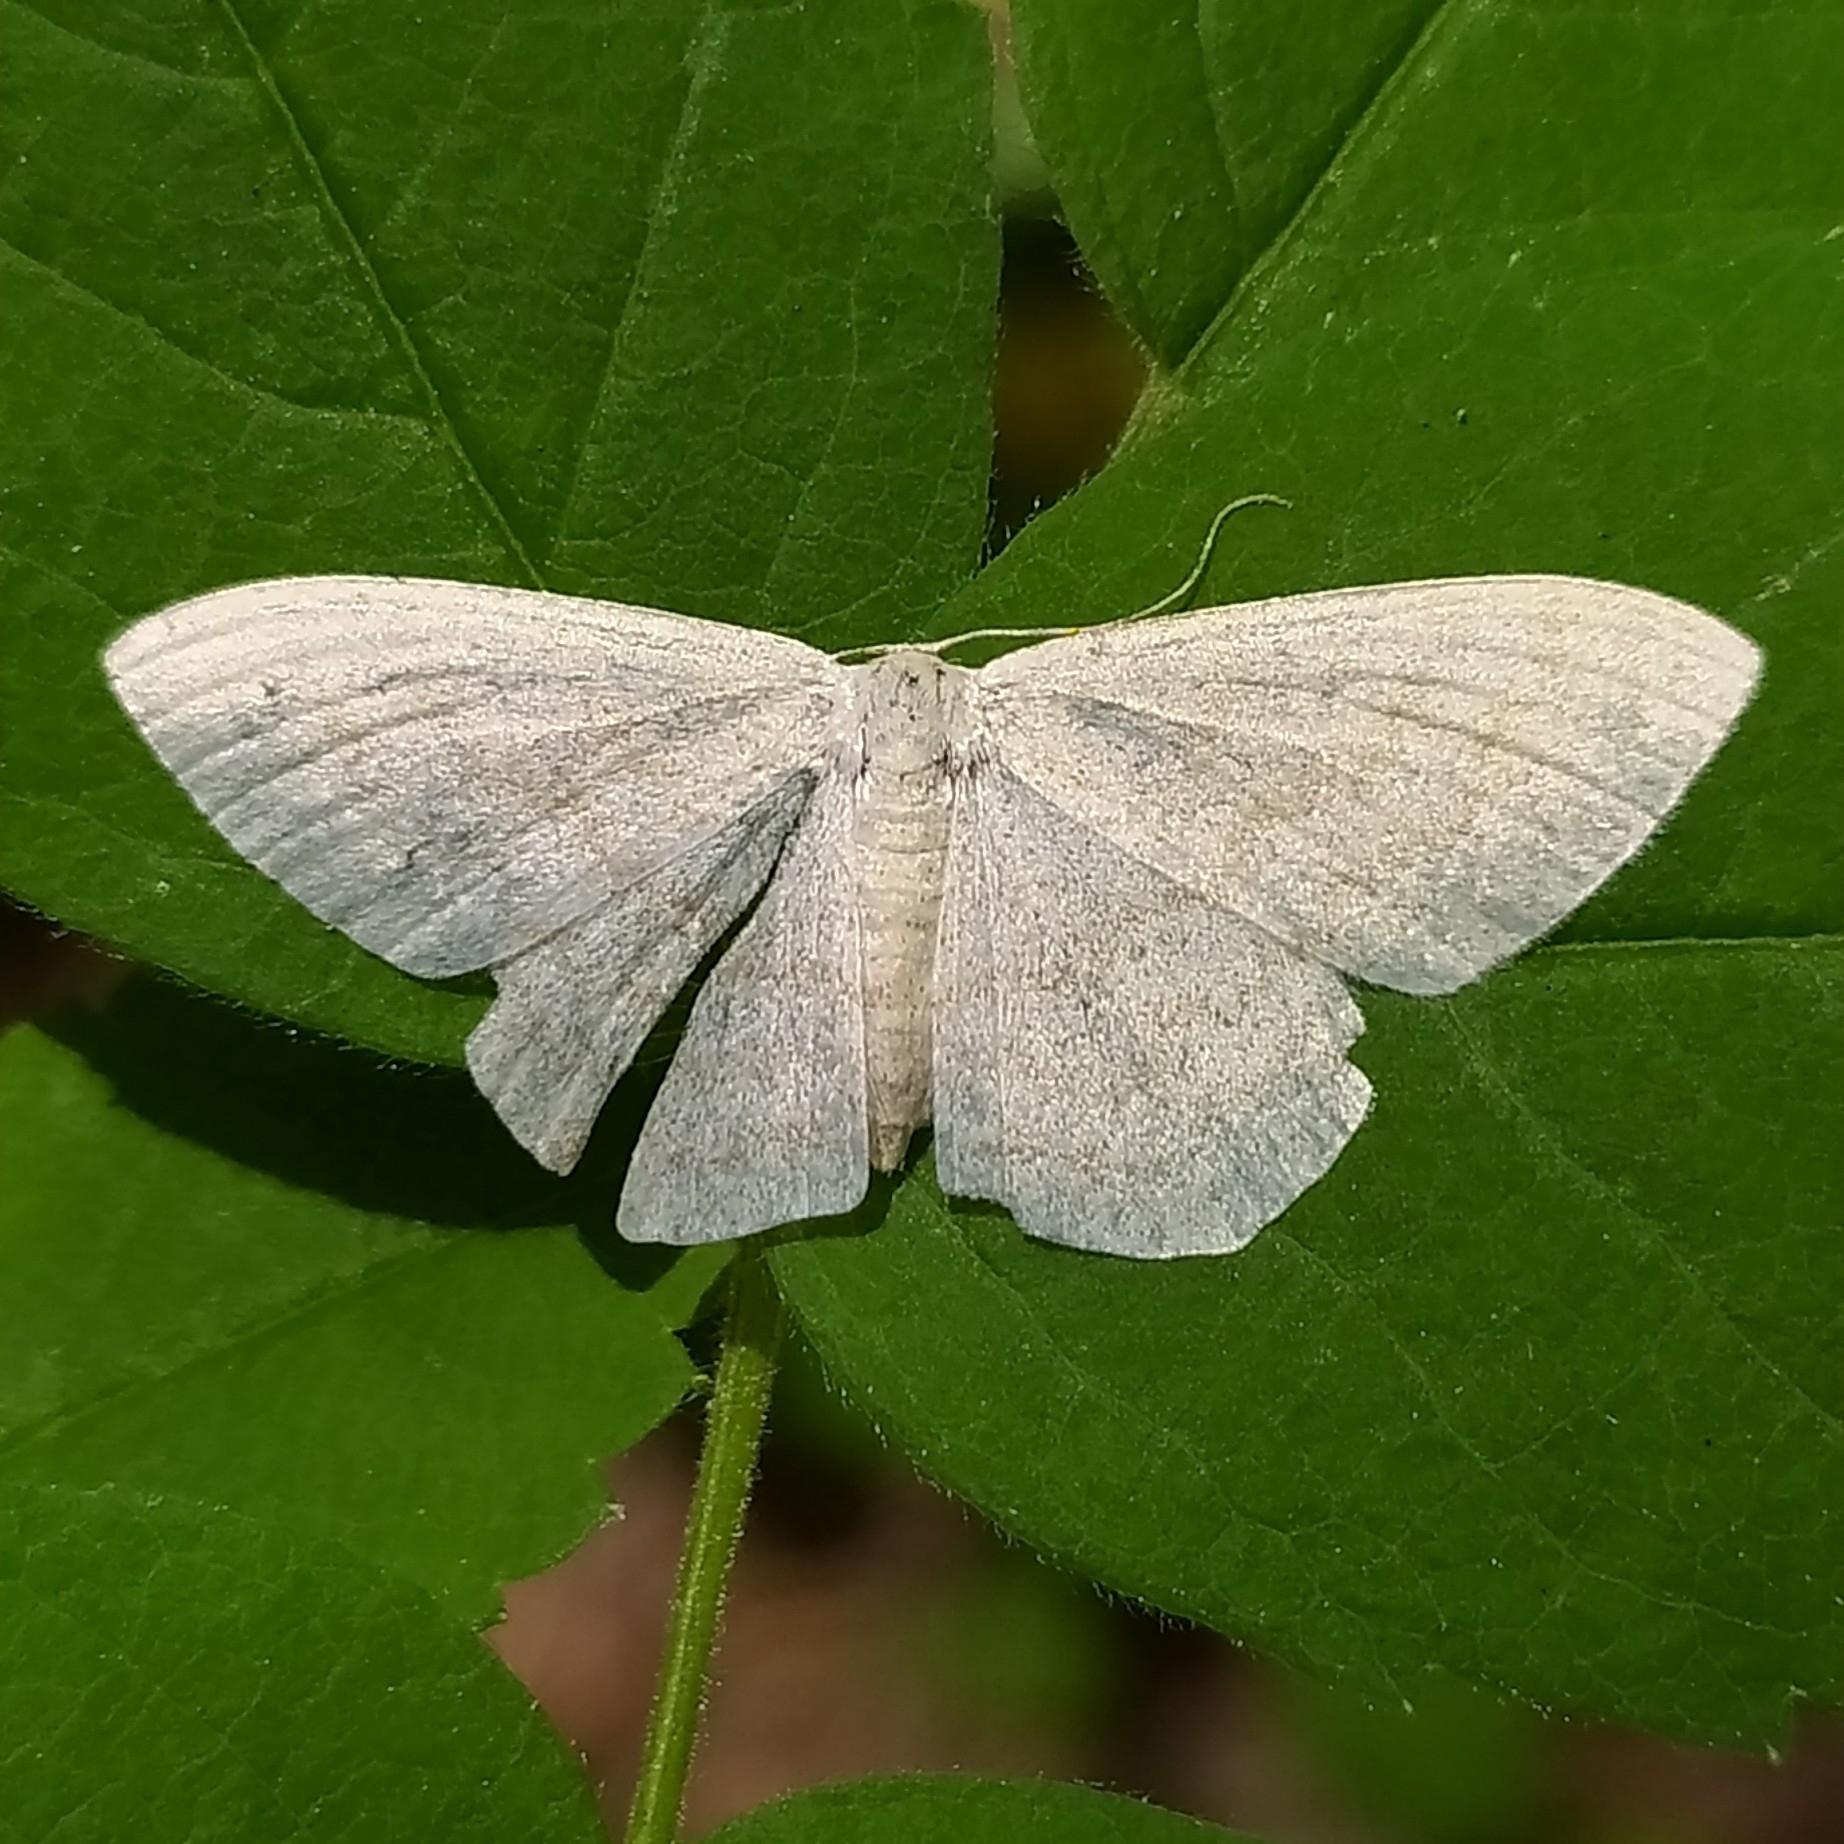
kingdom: Animalia
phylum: Arthropoda
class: Insecta
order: Lepidoptera
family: Geometridae
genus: Scopula
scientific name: Scopula floslactata
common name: Cream wave
